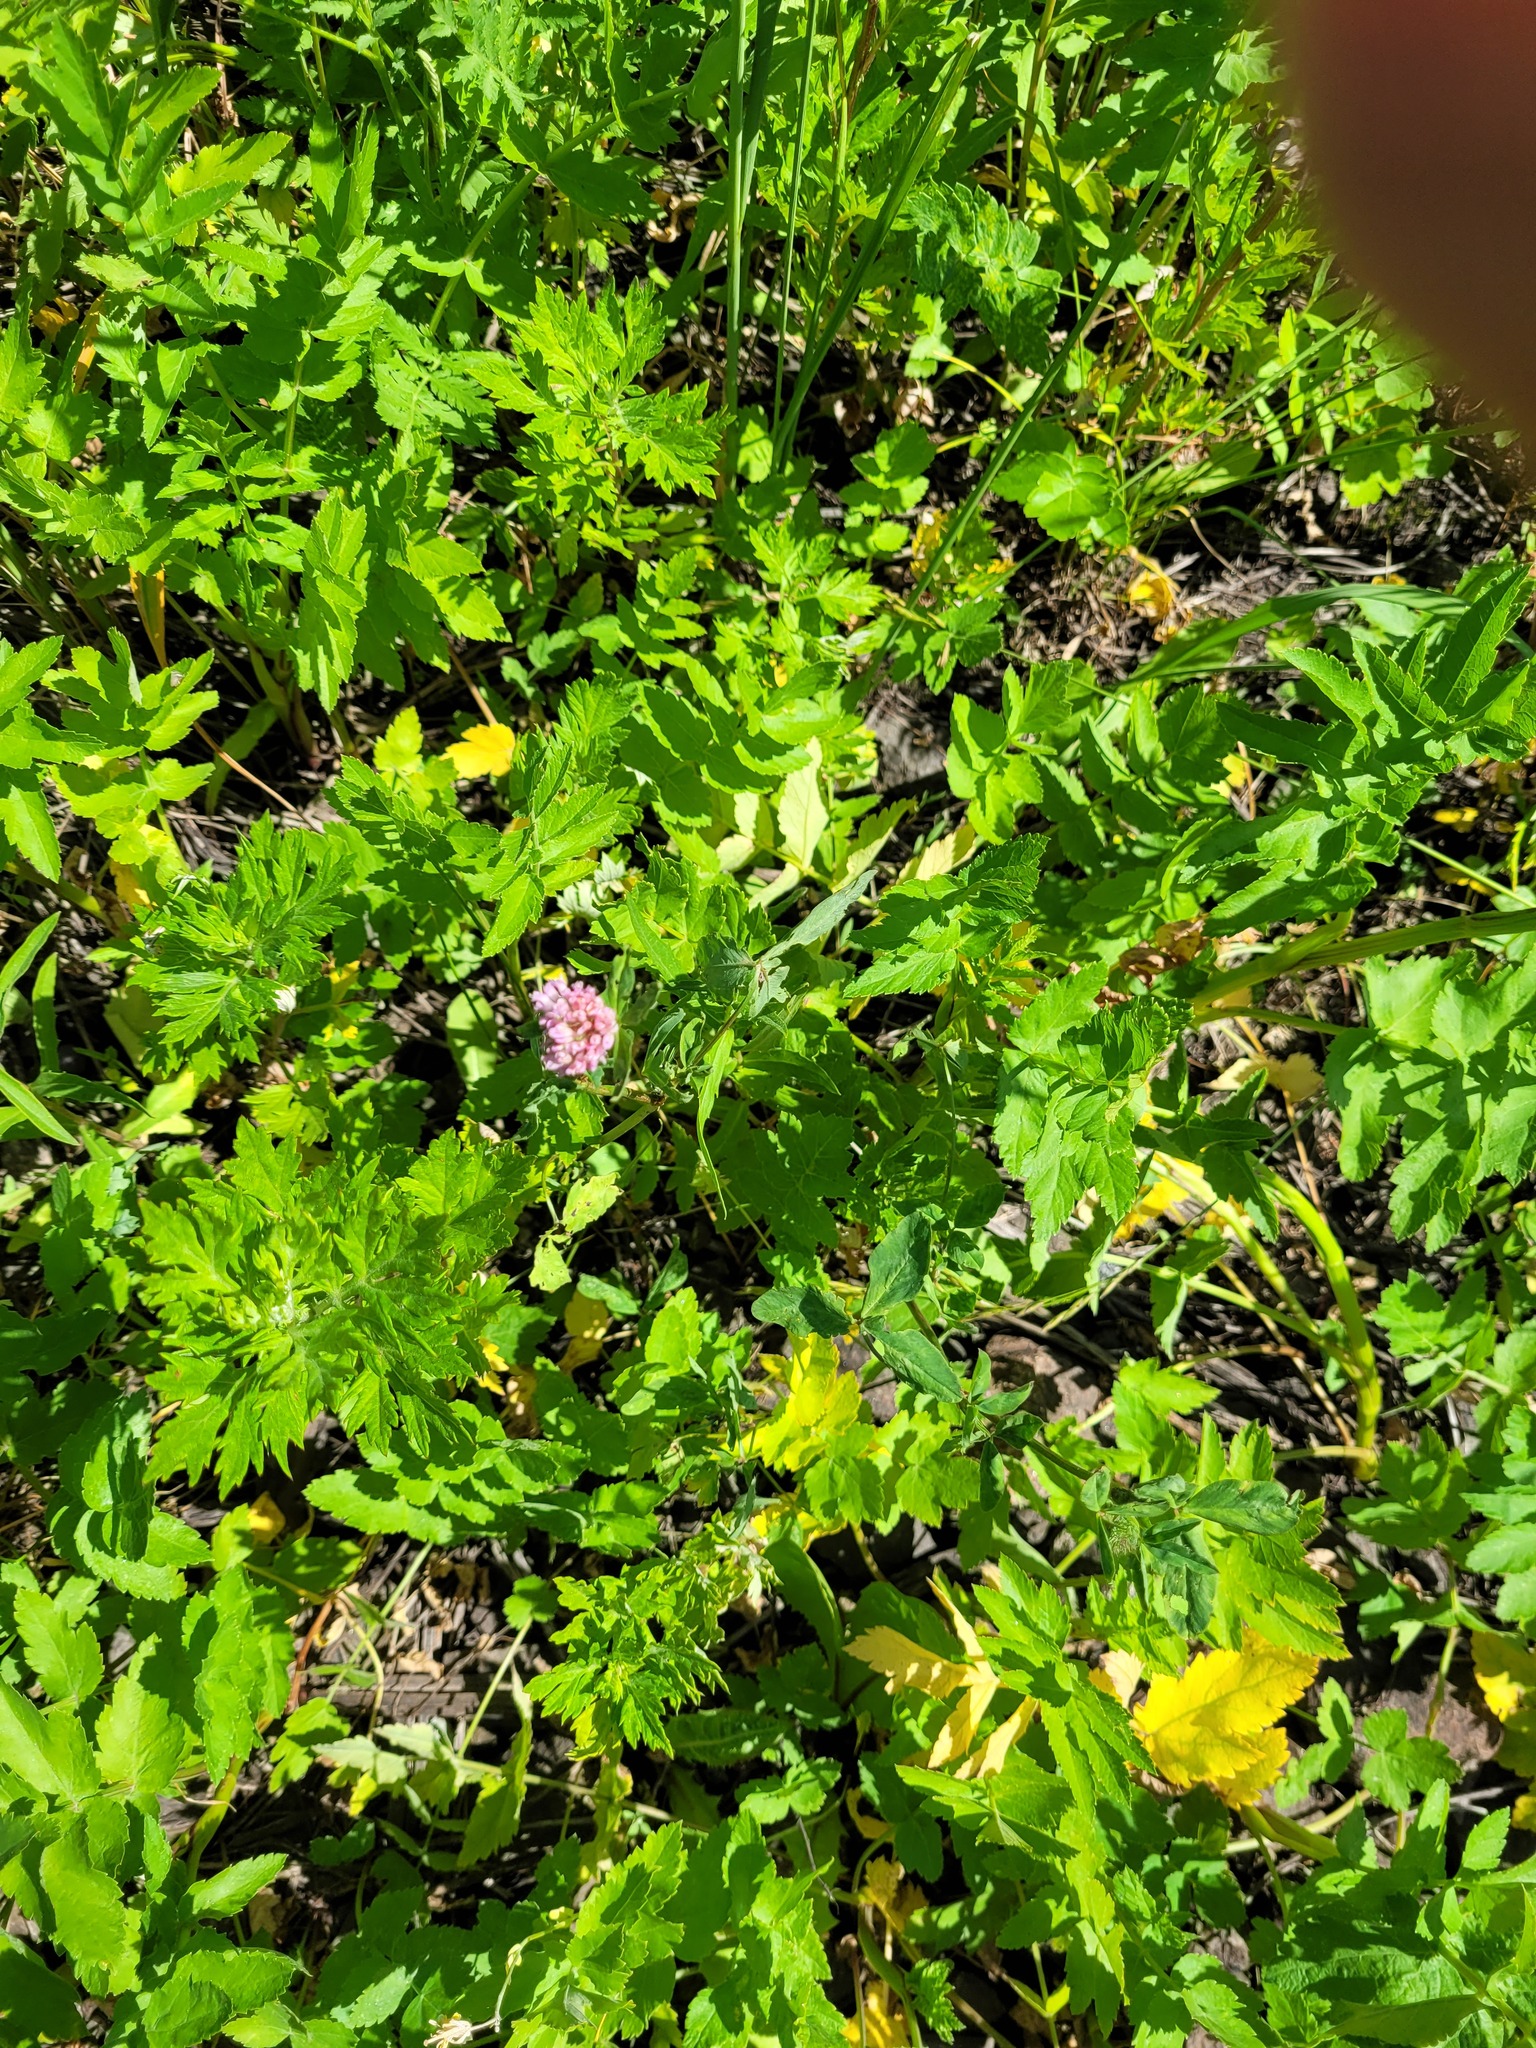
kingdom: Plantae
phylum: Tracheophyta
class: Magnoliopsida
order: Fabales
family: Fabaceae
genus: Trifolium
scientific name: Trifolium pratense
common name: Red clover
